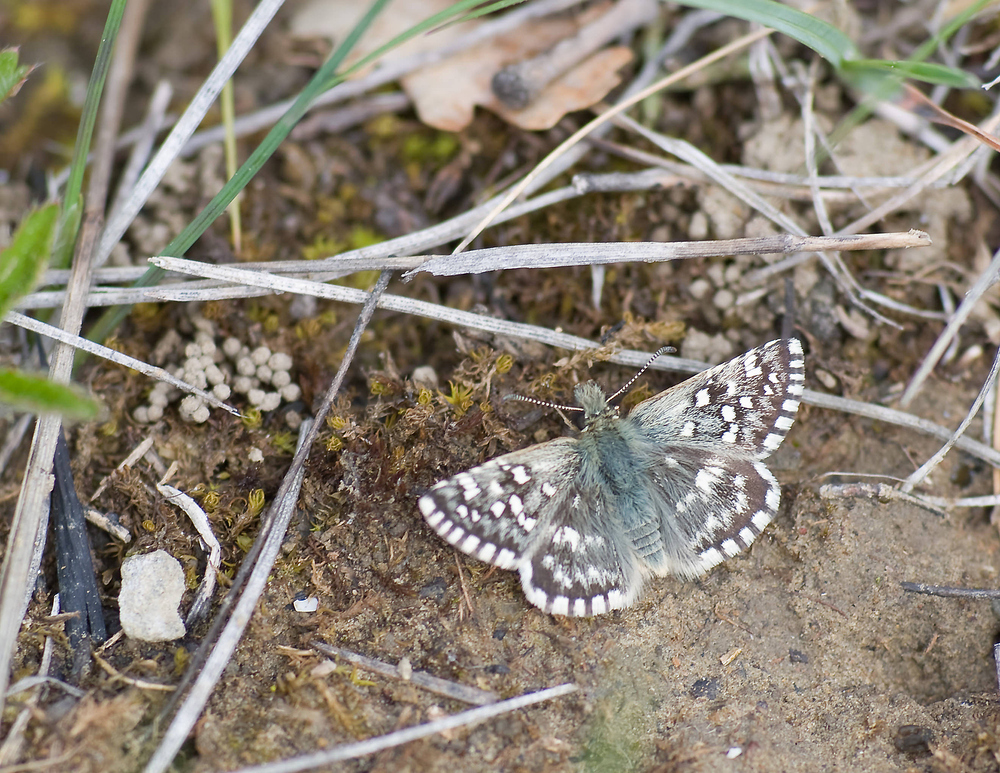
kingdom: Animalia
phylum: Arthropoda
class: Insecta
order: Lepidoptera
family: Hesperiidae
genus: Pyrgus
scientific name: Pyrgus malvoides
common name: Southern grizzled skipper
